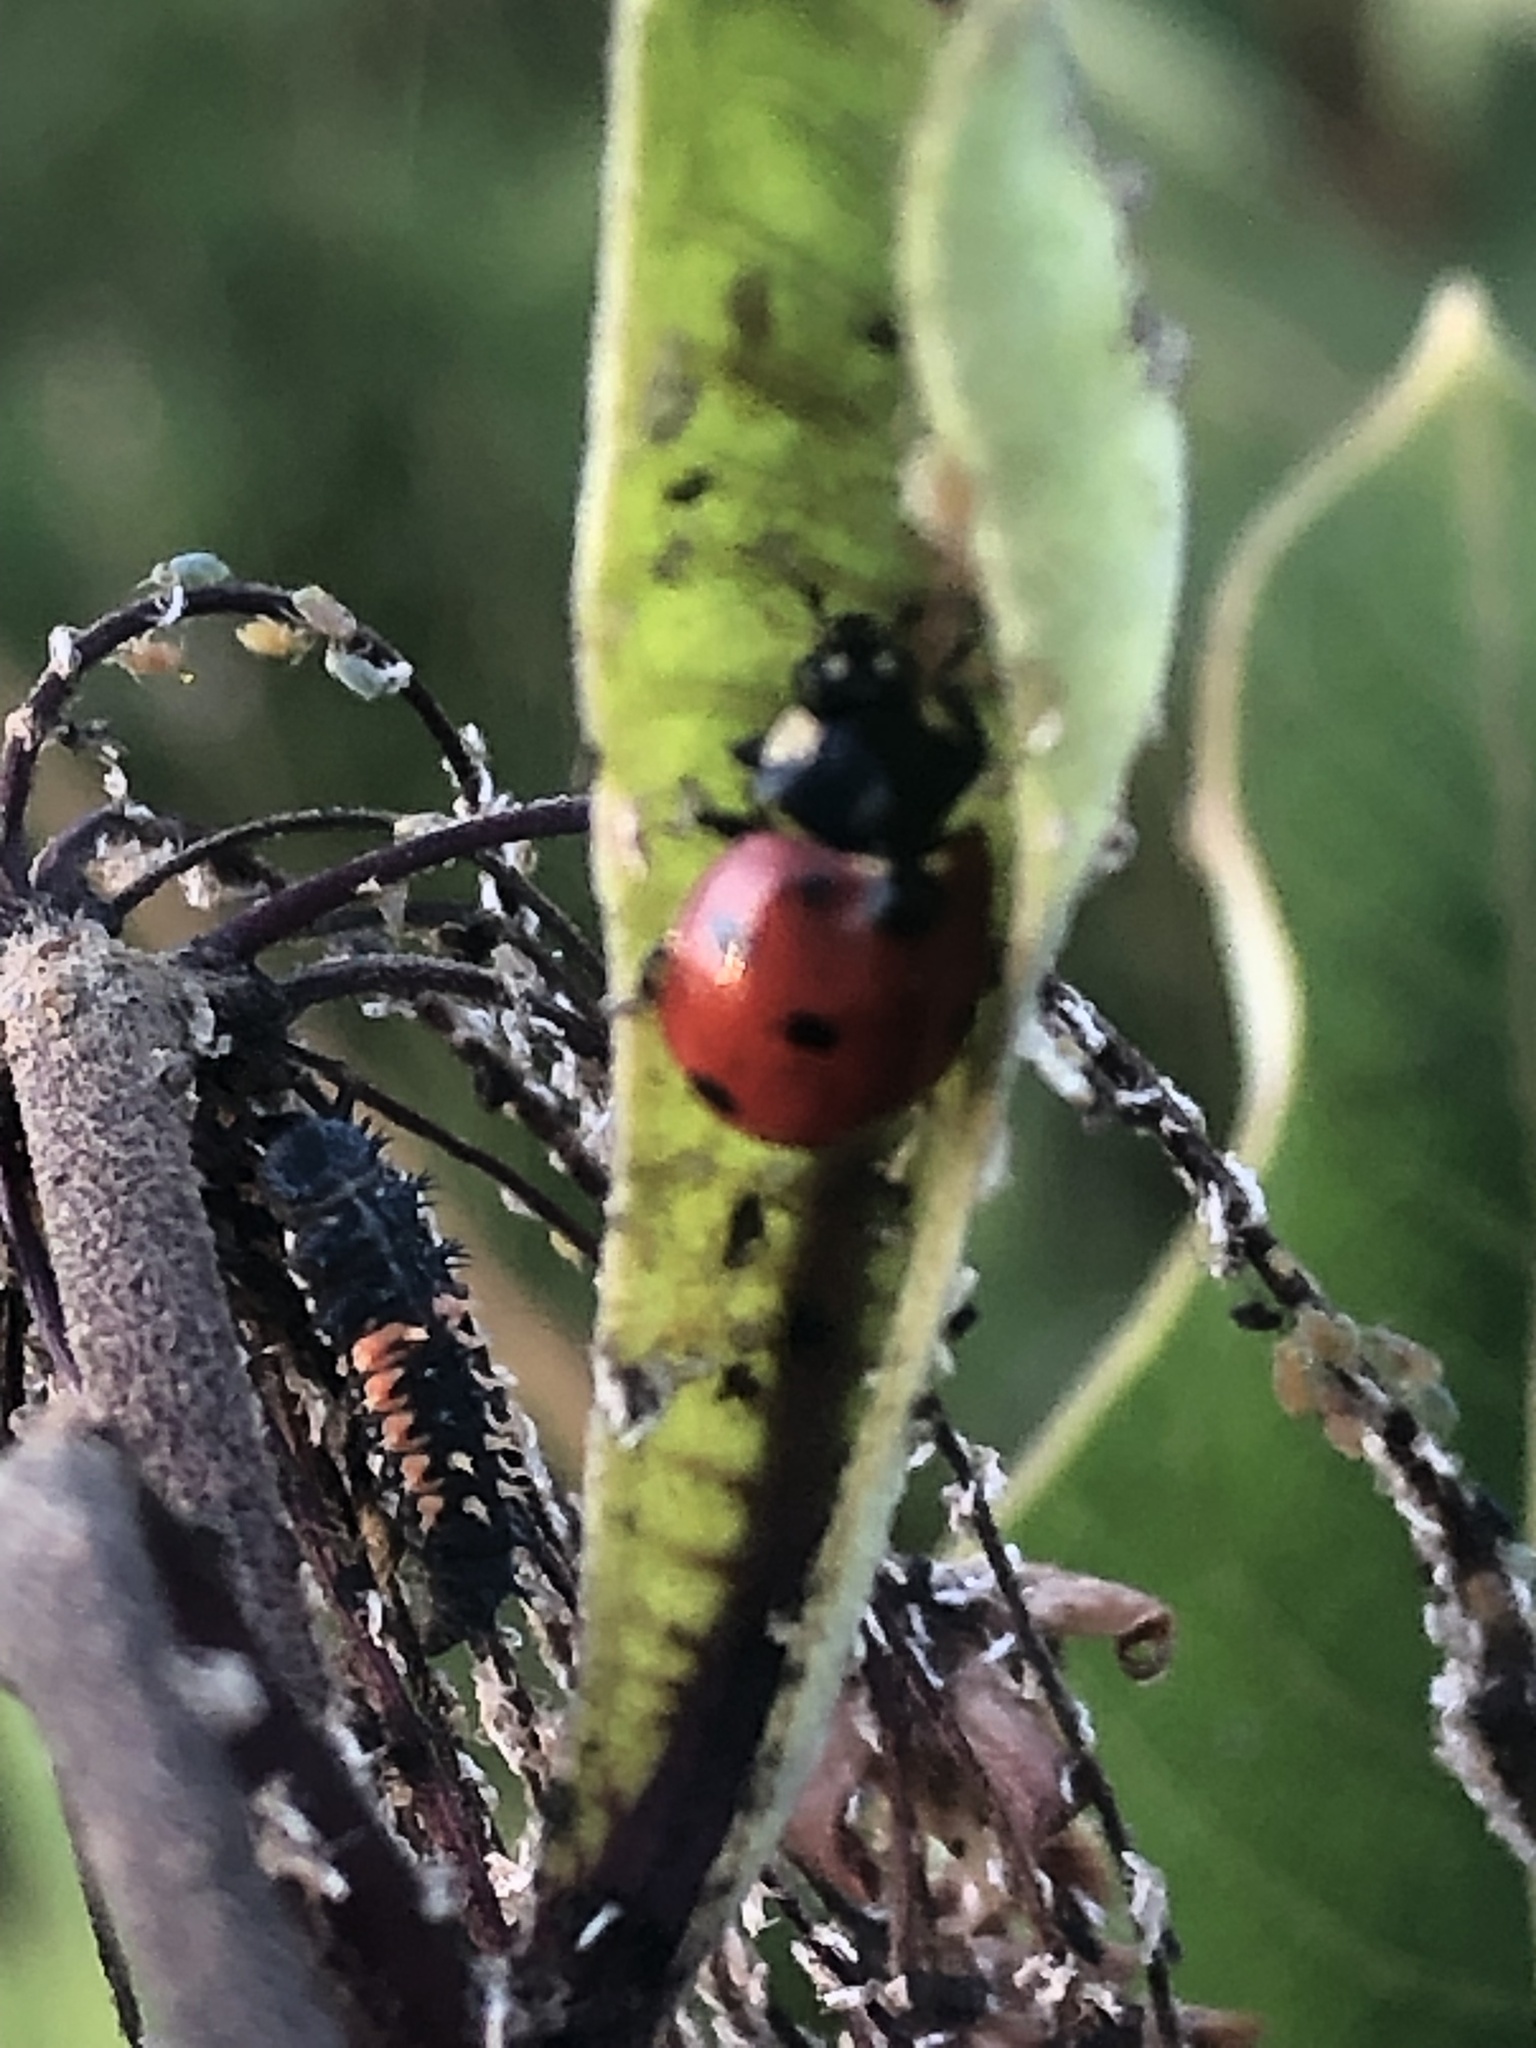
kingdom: Animalia
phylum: Arthropoda
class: Insecta
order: Coleoptera
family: Coccinellidae
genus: Harmonia
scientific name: Harmonia axyridis
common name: Harlequin ladybird
